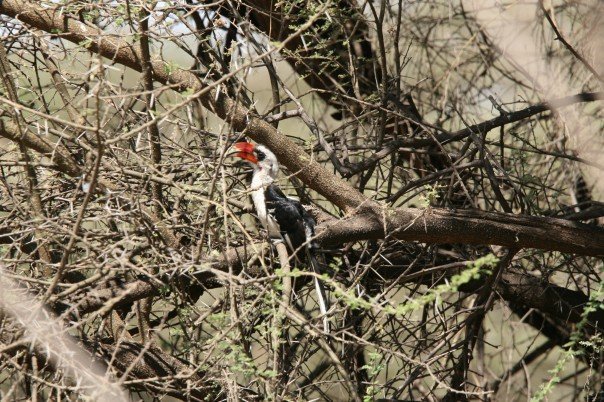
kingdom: Animalia
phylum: Chordata
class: Aves
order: Bucerotiformes
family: Bucerotidae
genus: Tockus
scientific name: Tockus deckeni
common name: Von der decken's hornbill
